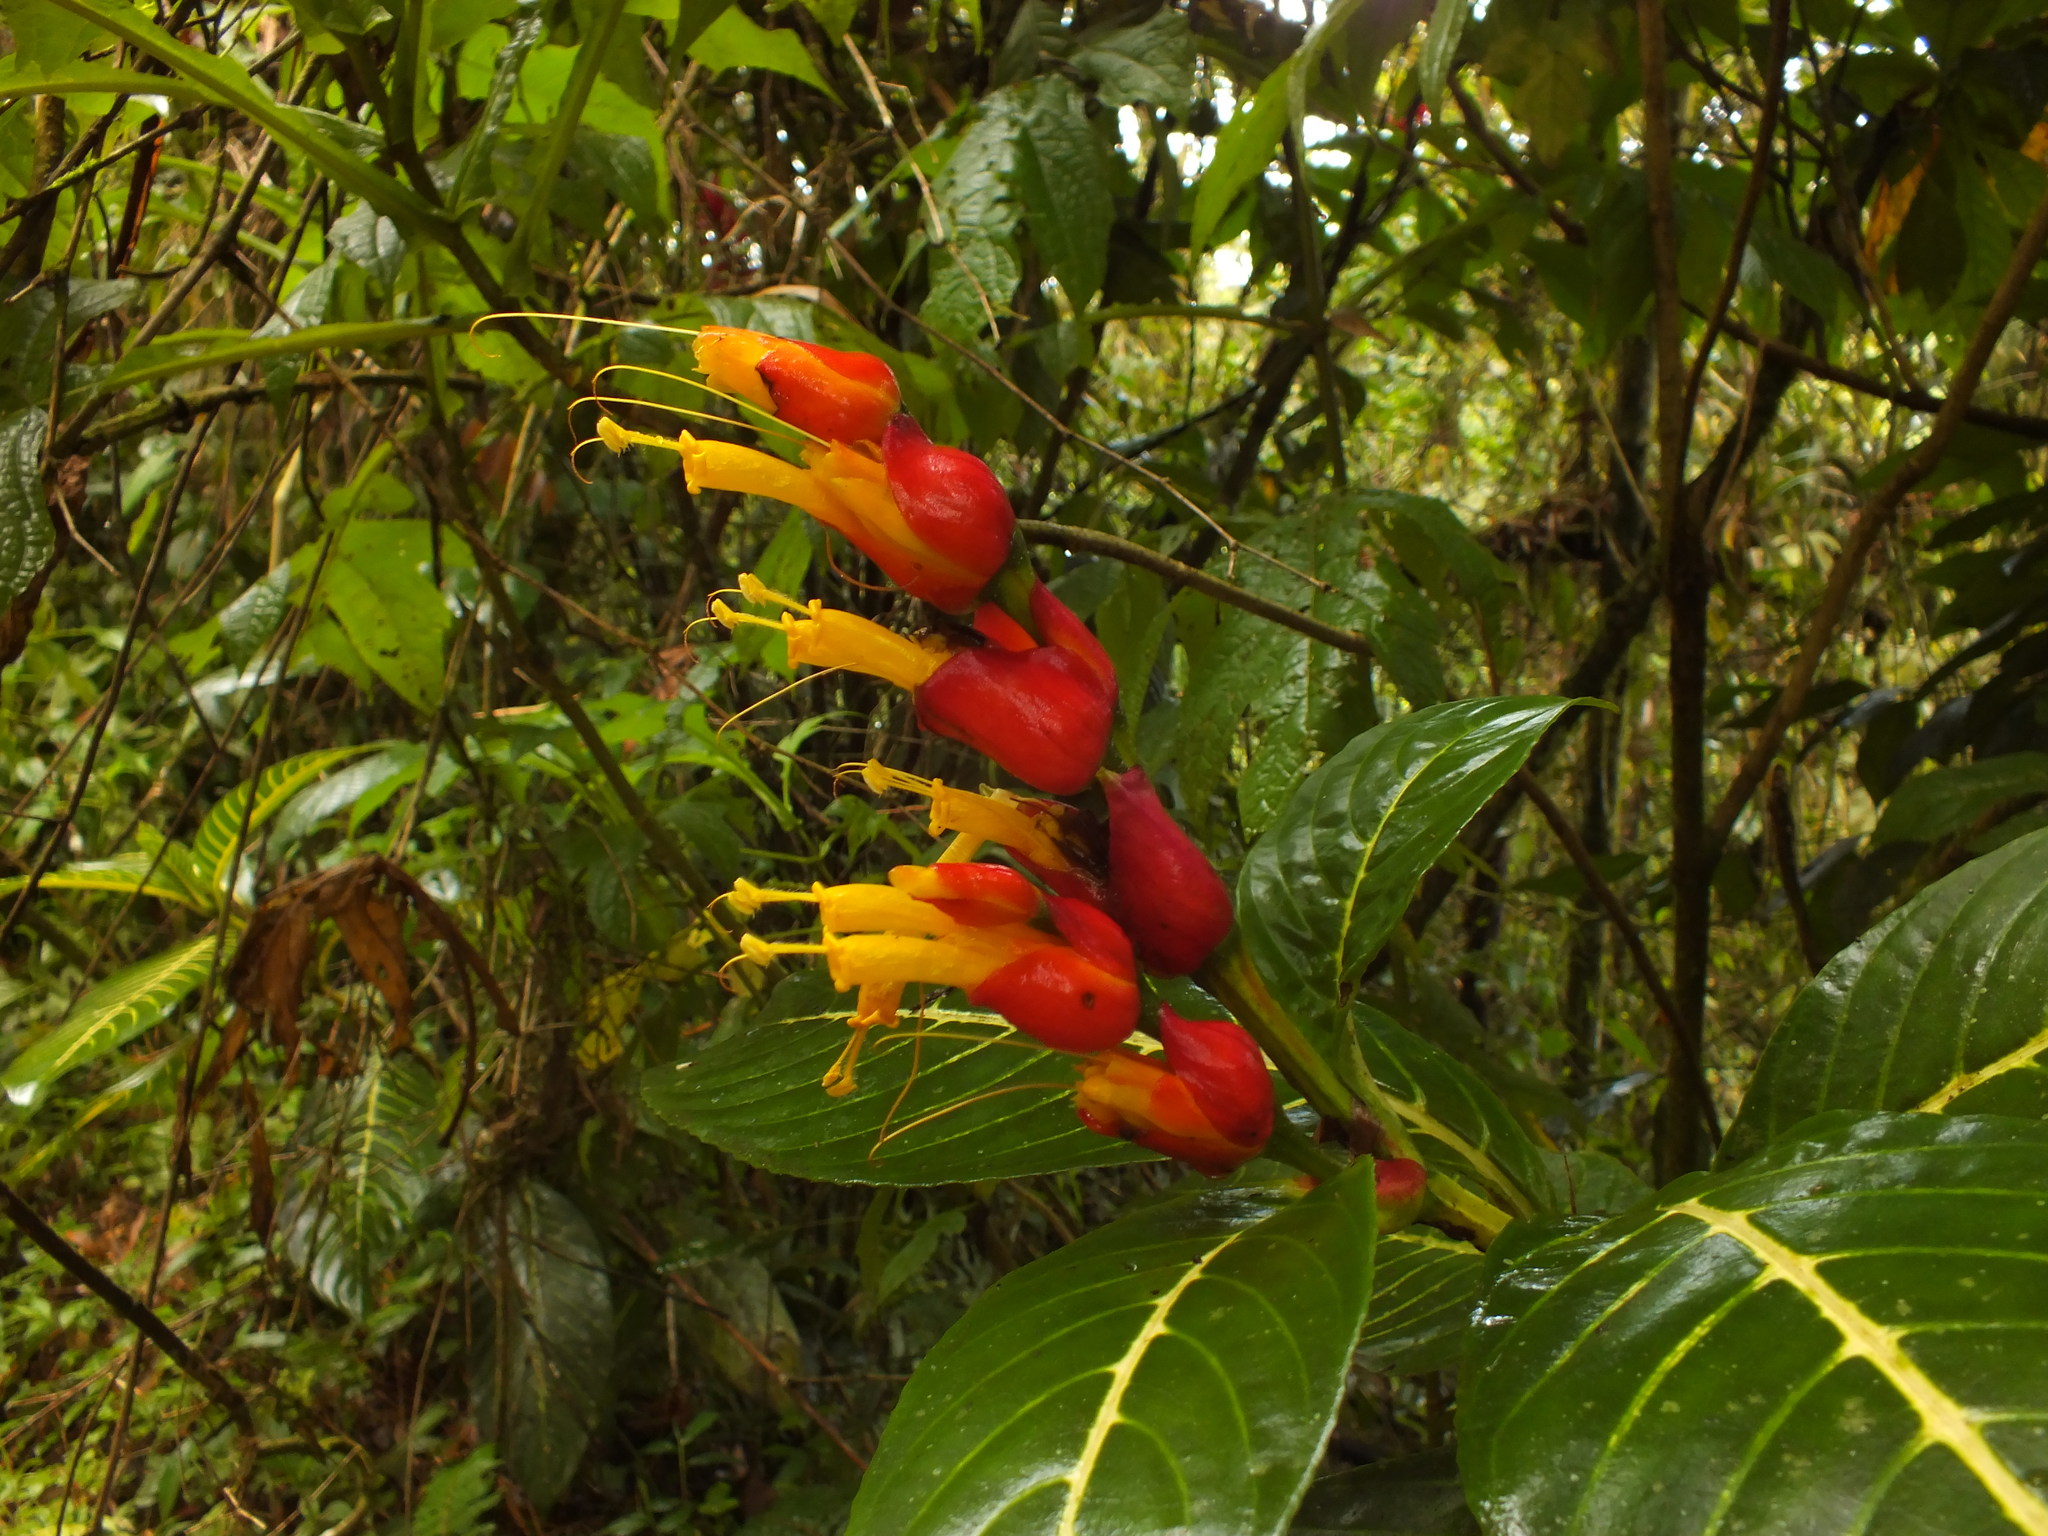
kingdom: Plantae
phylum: Tracheophyta
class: Magnoliopsida
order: Lamiales
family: Acanthaceae
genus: Sanchezia
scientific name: Sanchezia oblonga
